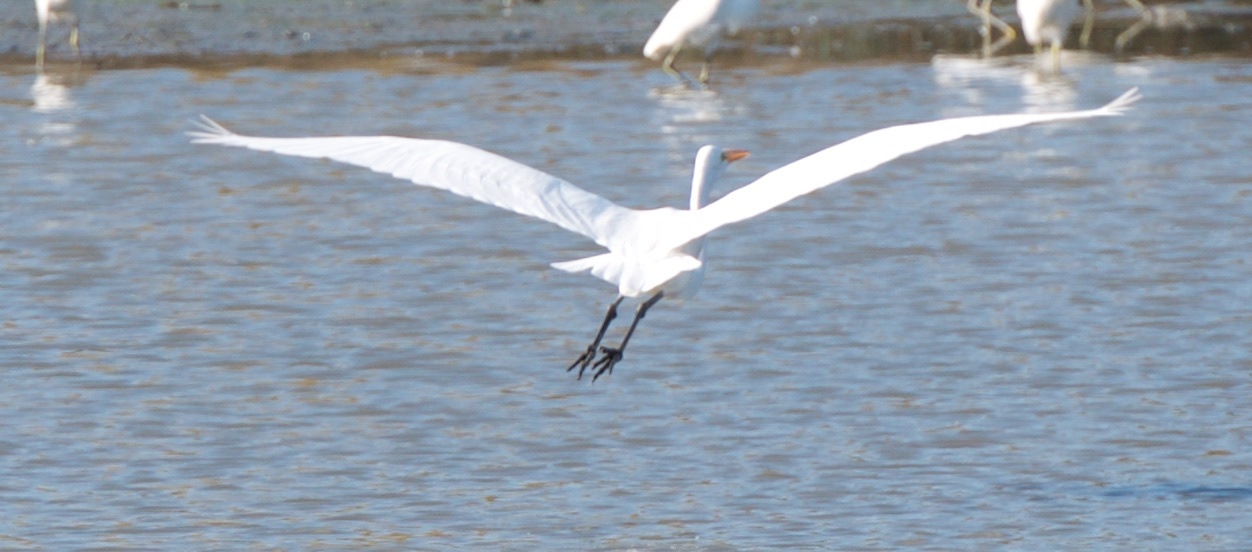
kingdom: Animalia
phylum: Chordata
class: Aves
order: Pelecaniformes
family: Ardeidae
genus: Ardea
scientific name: Ardea alba
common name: Great egret
